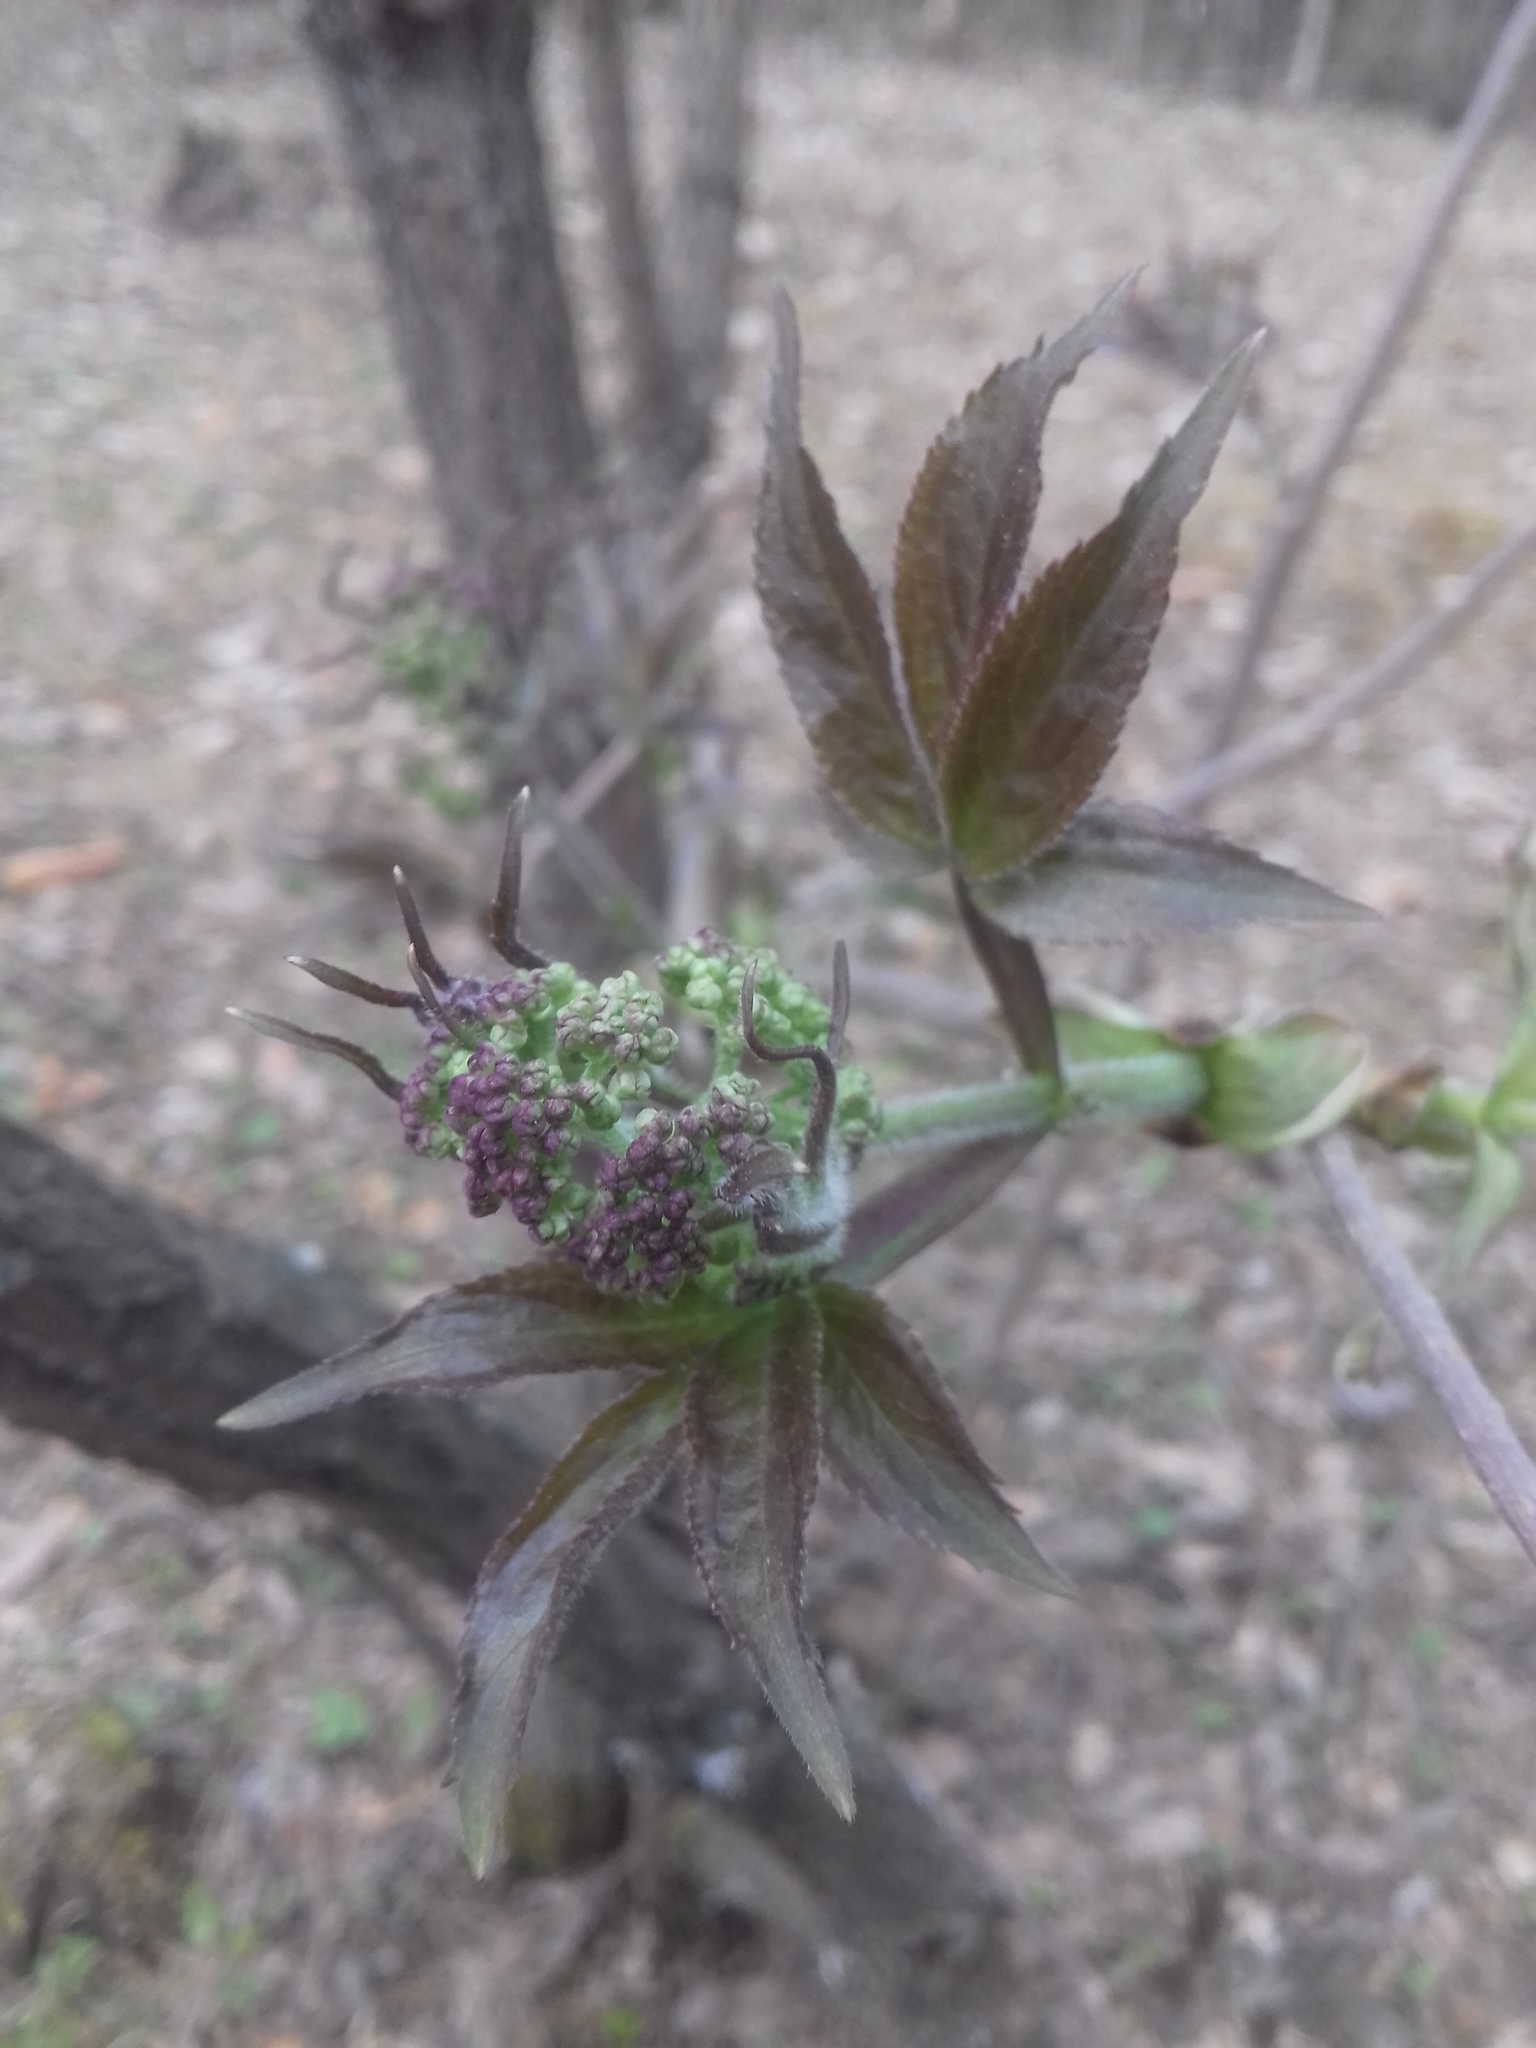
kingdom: Plantae
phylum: Tracheophyta
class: Magnoliopsida
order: Dipsacales
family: Viburnaceae
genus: Sambucus
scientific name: Sambucus sibirica
